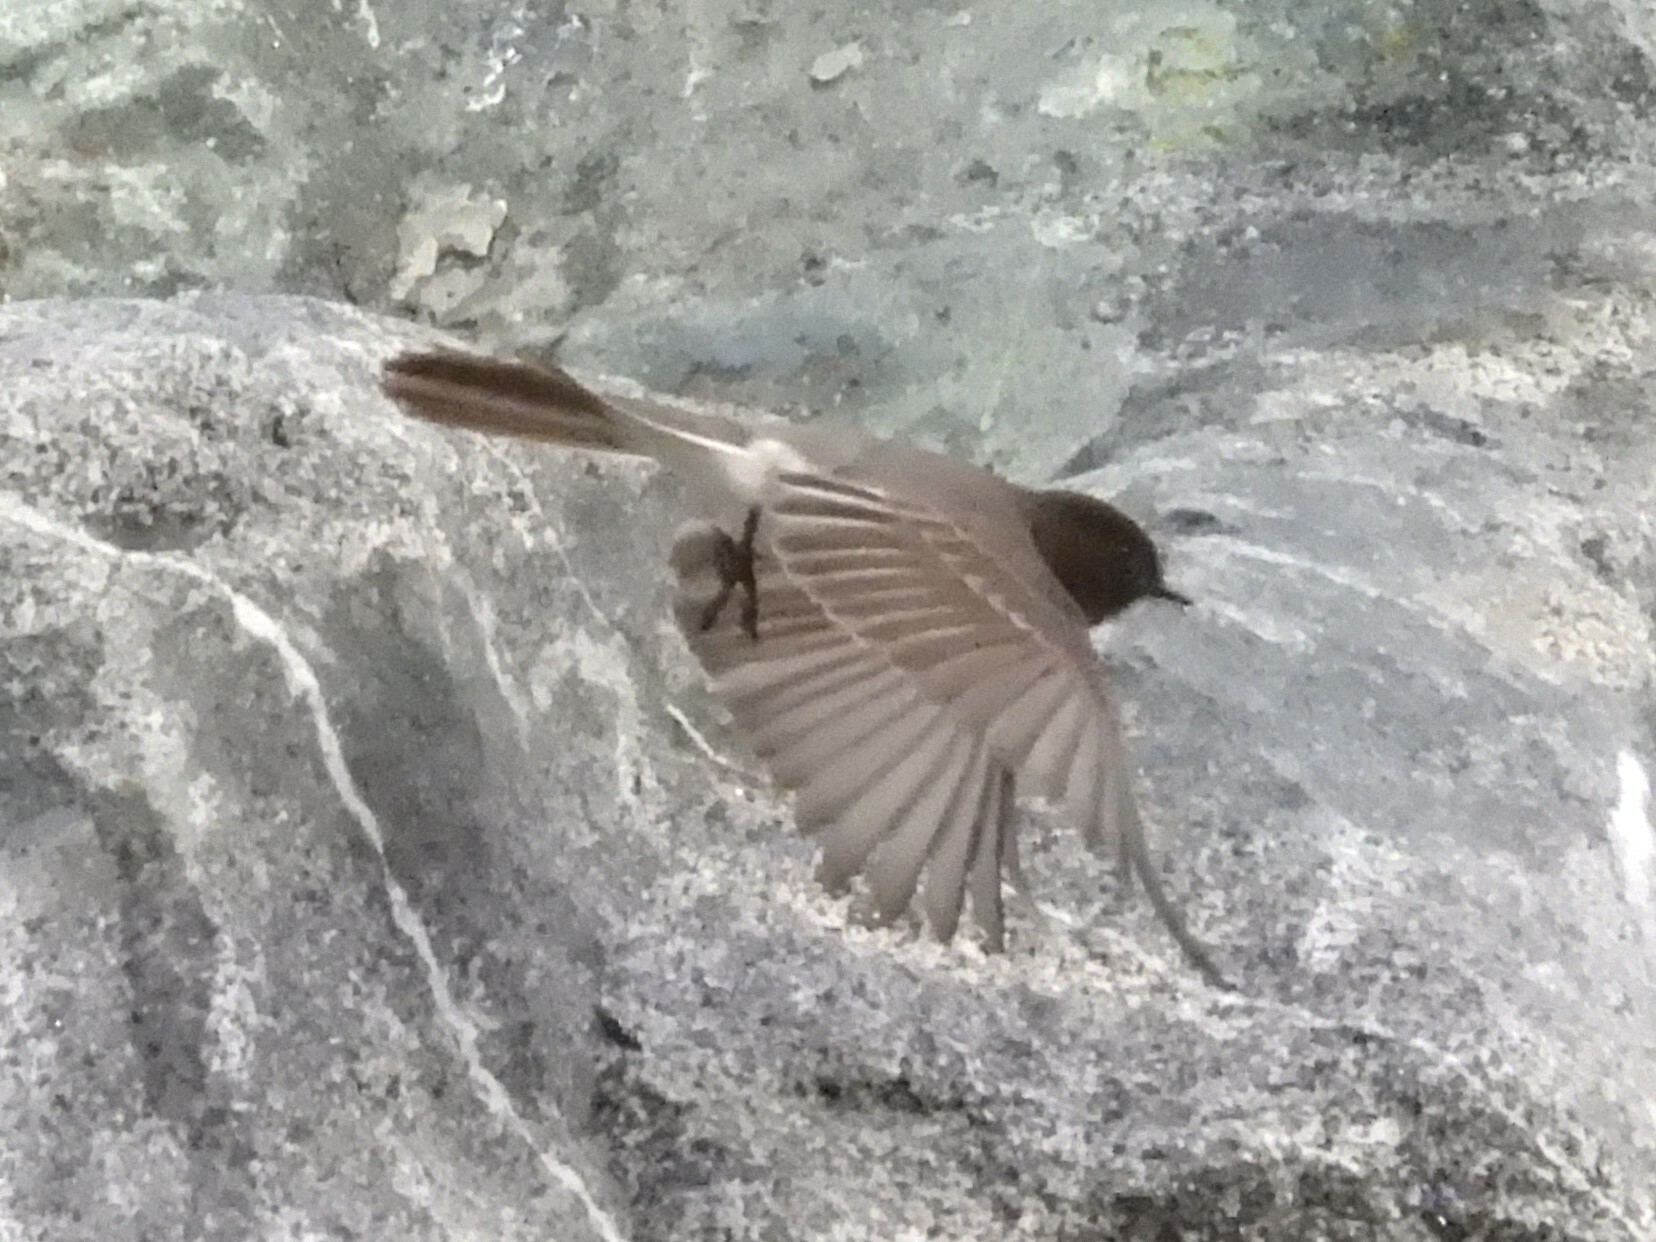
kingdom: Animalia
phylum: Chordata
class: Aves
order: Passeriformes
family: Tyrannidae
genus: Sayornis
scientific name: Sayornis nigricans
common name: Black phoebe
